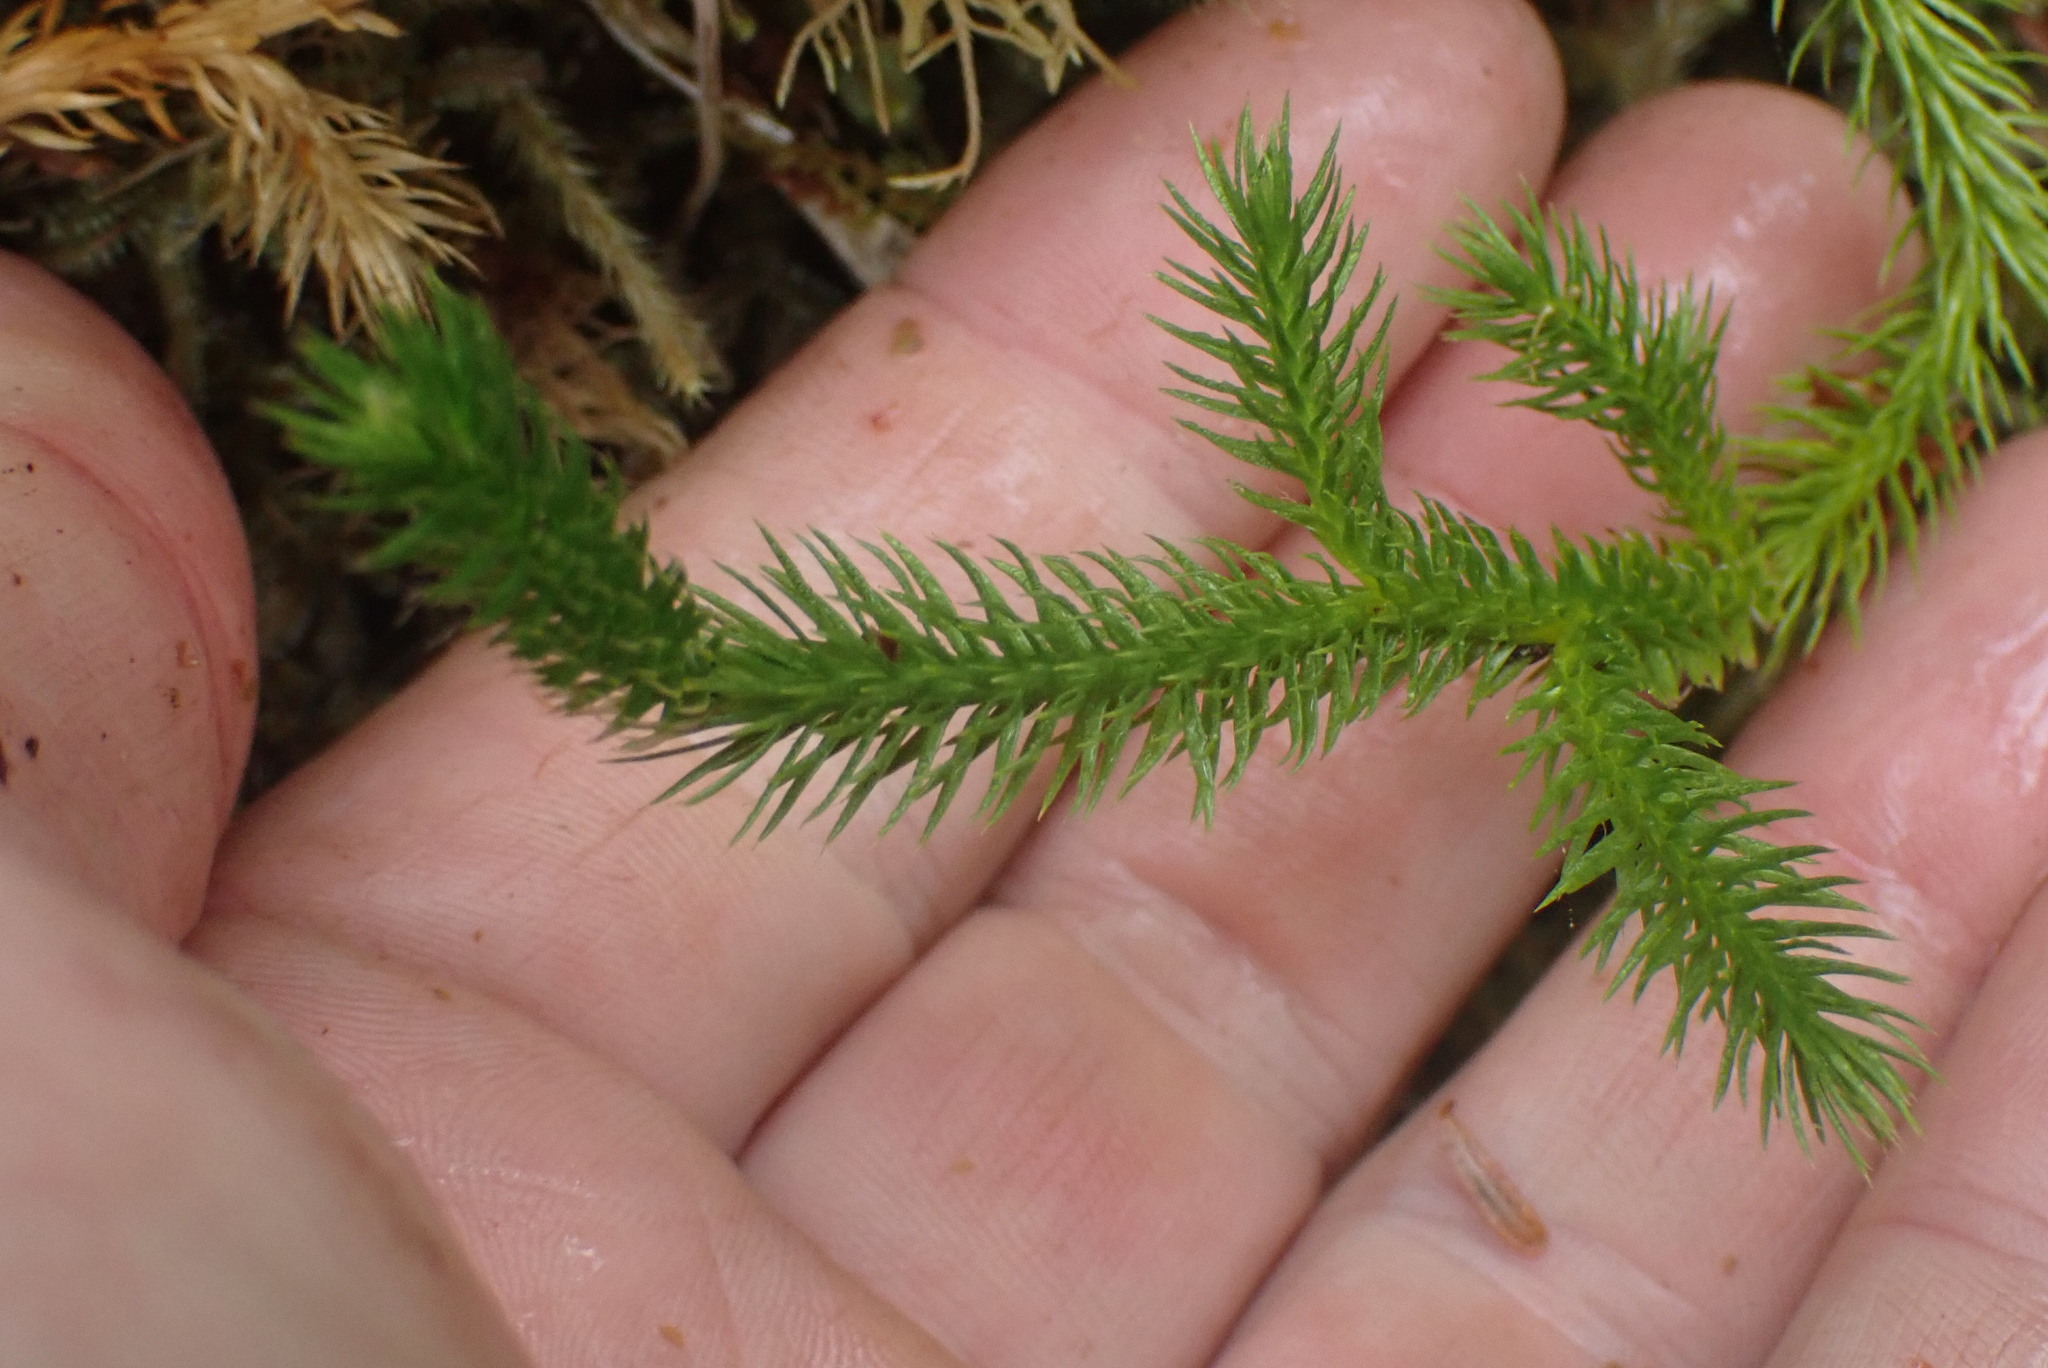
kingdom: Plantae
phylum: Tracheophyta
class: Lycopodiopsida
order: Lycopodiales
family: Lycopodiaceae
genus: Lycopodium
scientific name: Lycopodium clavatum
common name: Stag's-horn clubmoss
